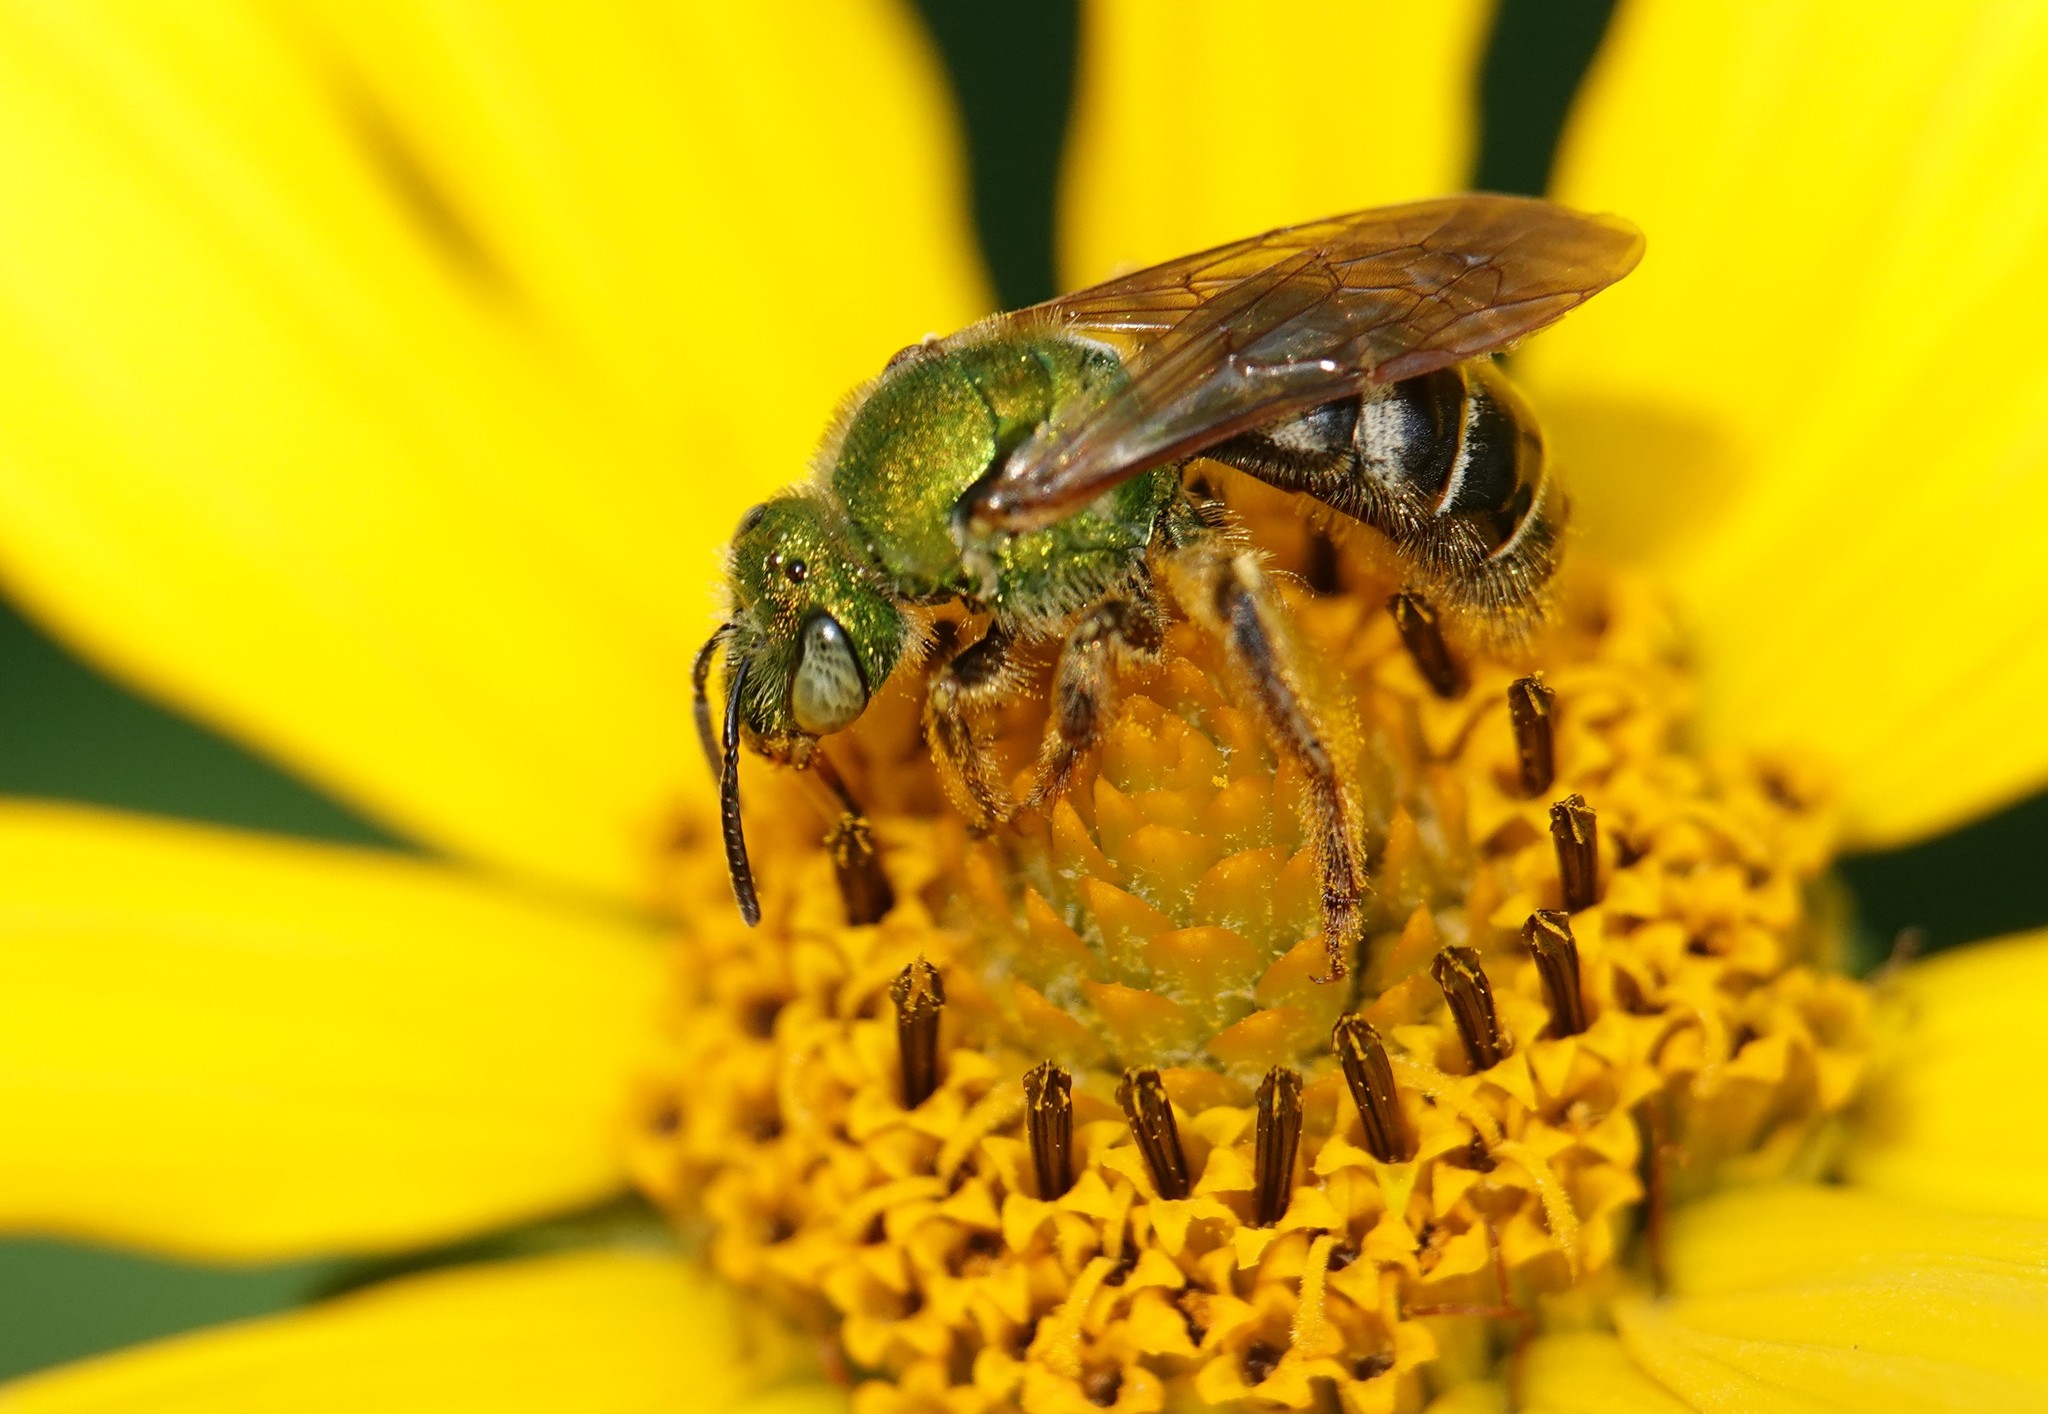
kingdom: Animalia
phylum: Arthropoda
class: Insecta
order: Hymenoptera
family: Halictidae
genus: Agapostemon
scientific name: Agapostemon virescens
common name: Bicolored striped sweat bee
